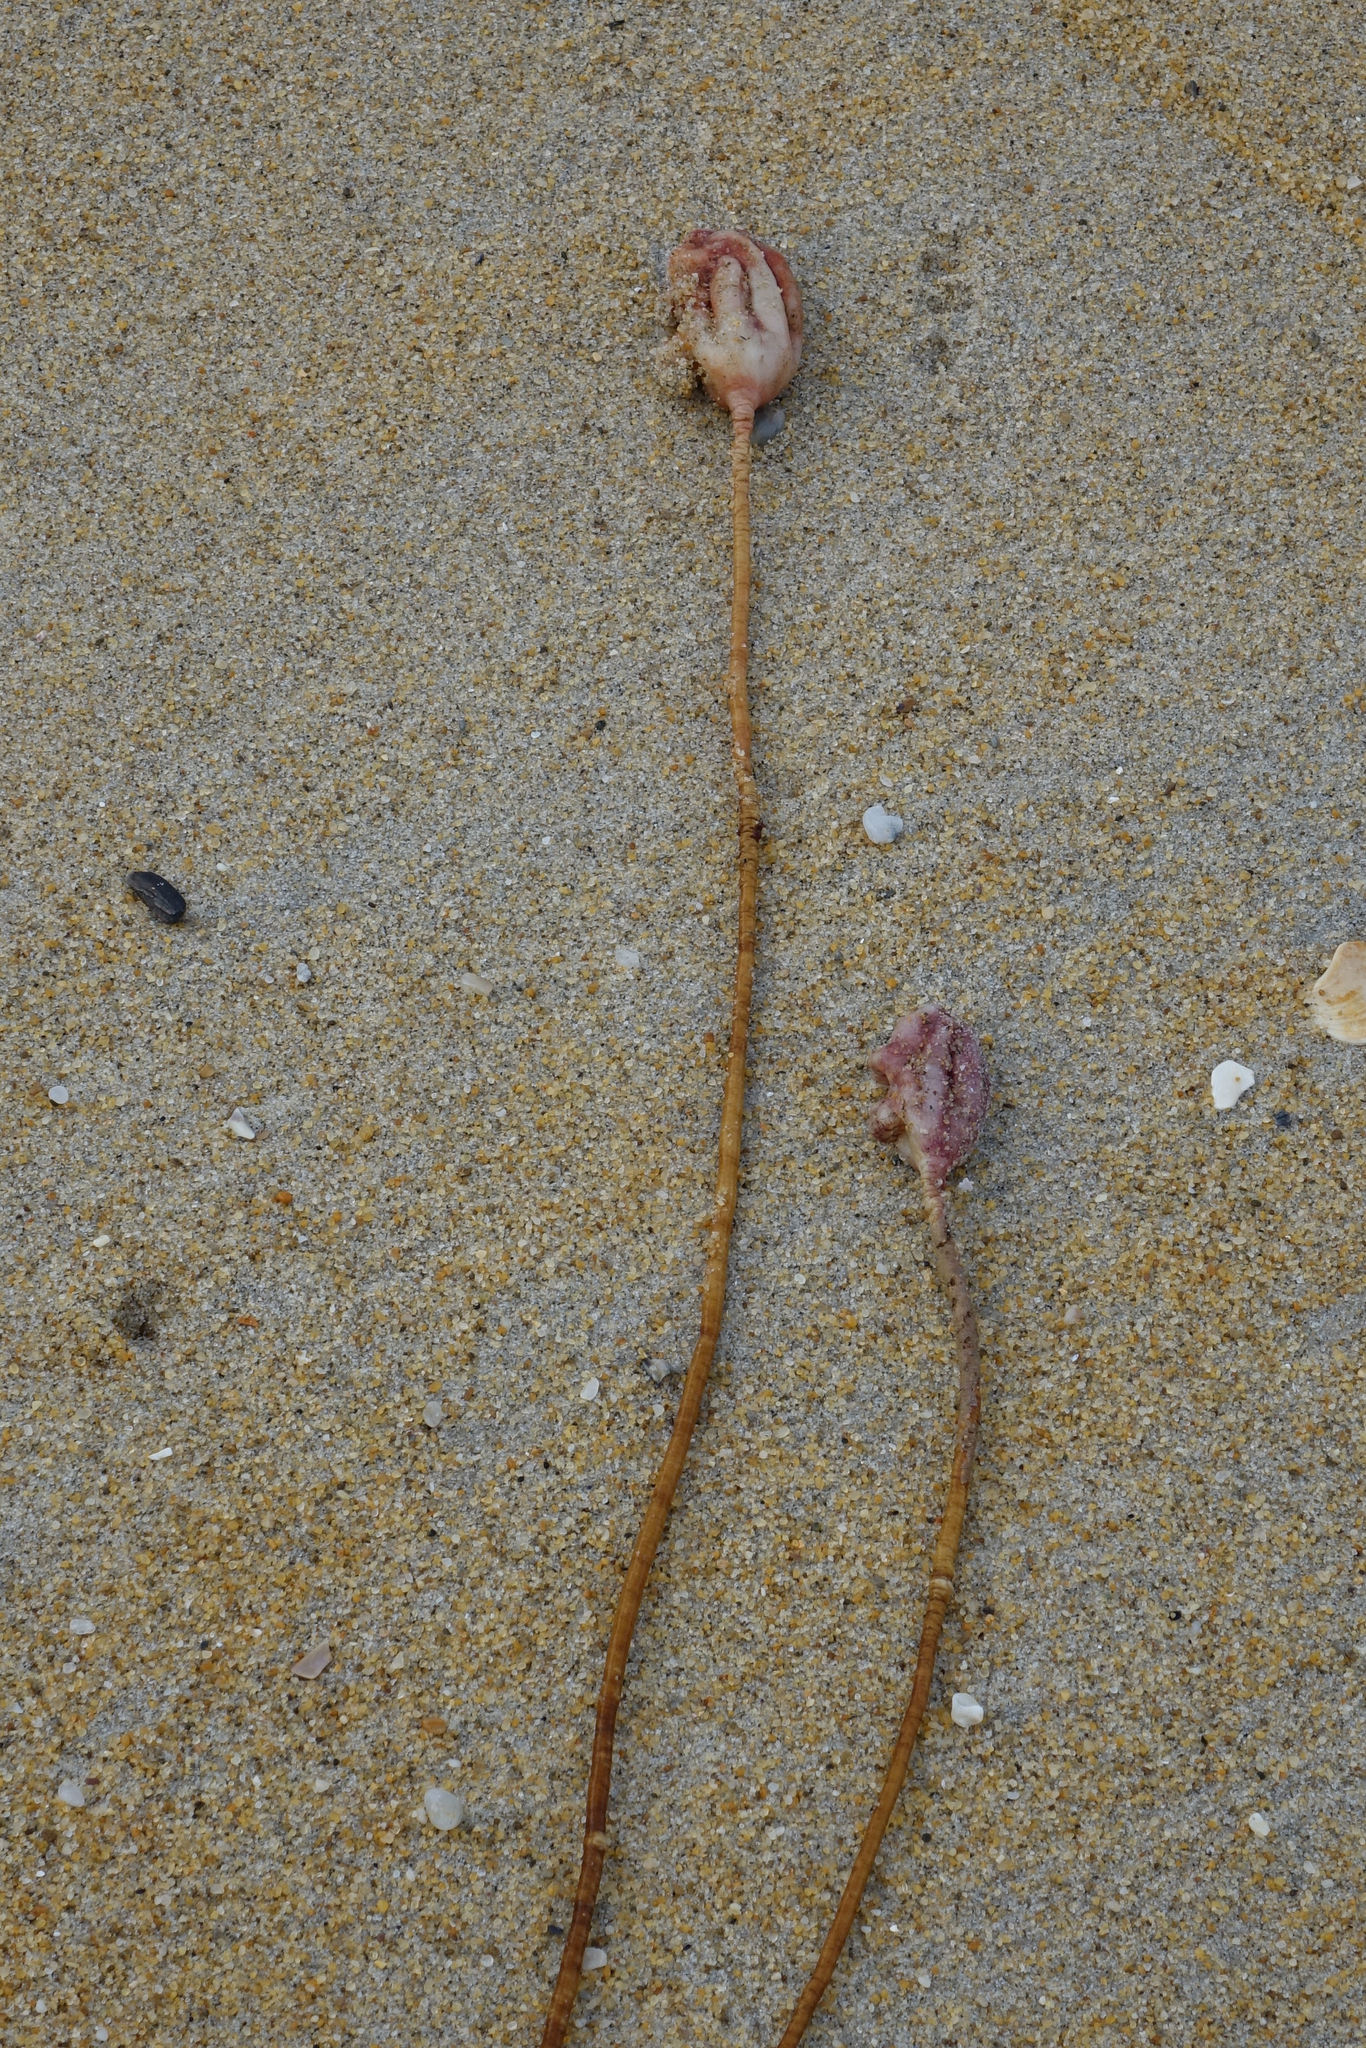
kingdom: Animalia
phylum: Chordata
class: Ascidiacea
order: Stolidobranchia
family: Pyuridae
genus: Pyura
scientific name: Pyura pachydermatina
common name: Sea tulip
